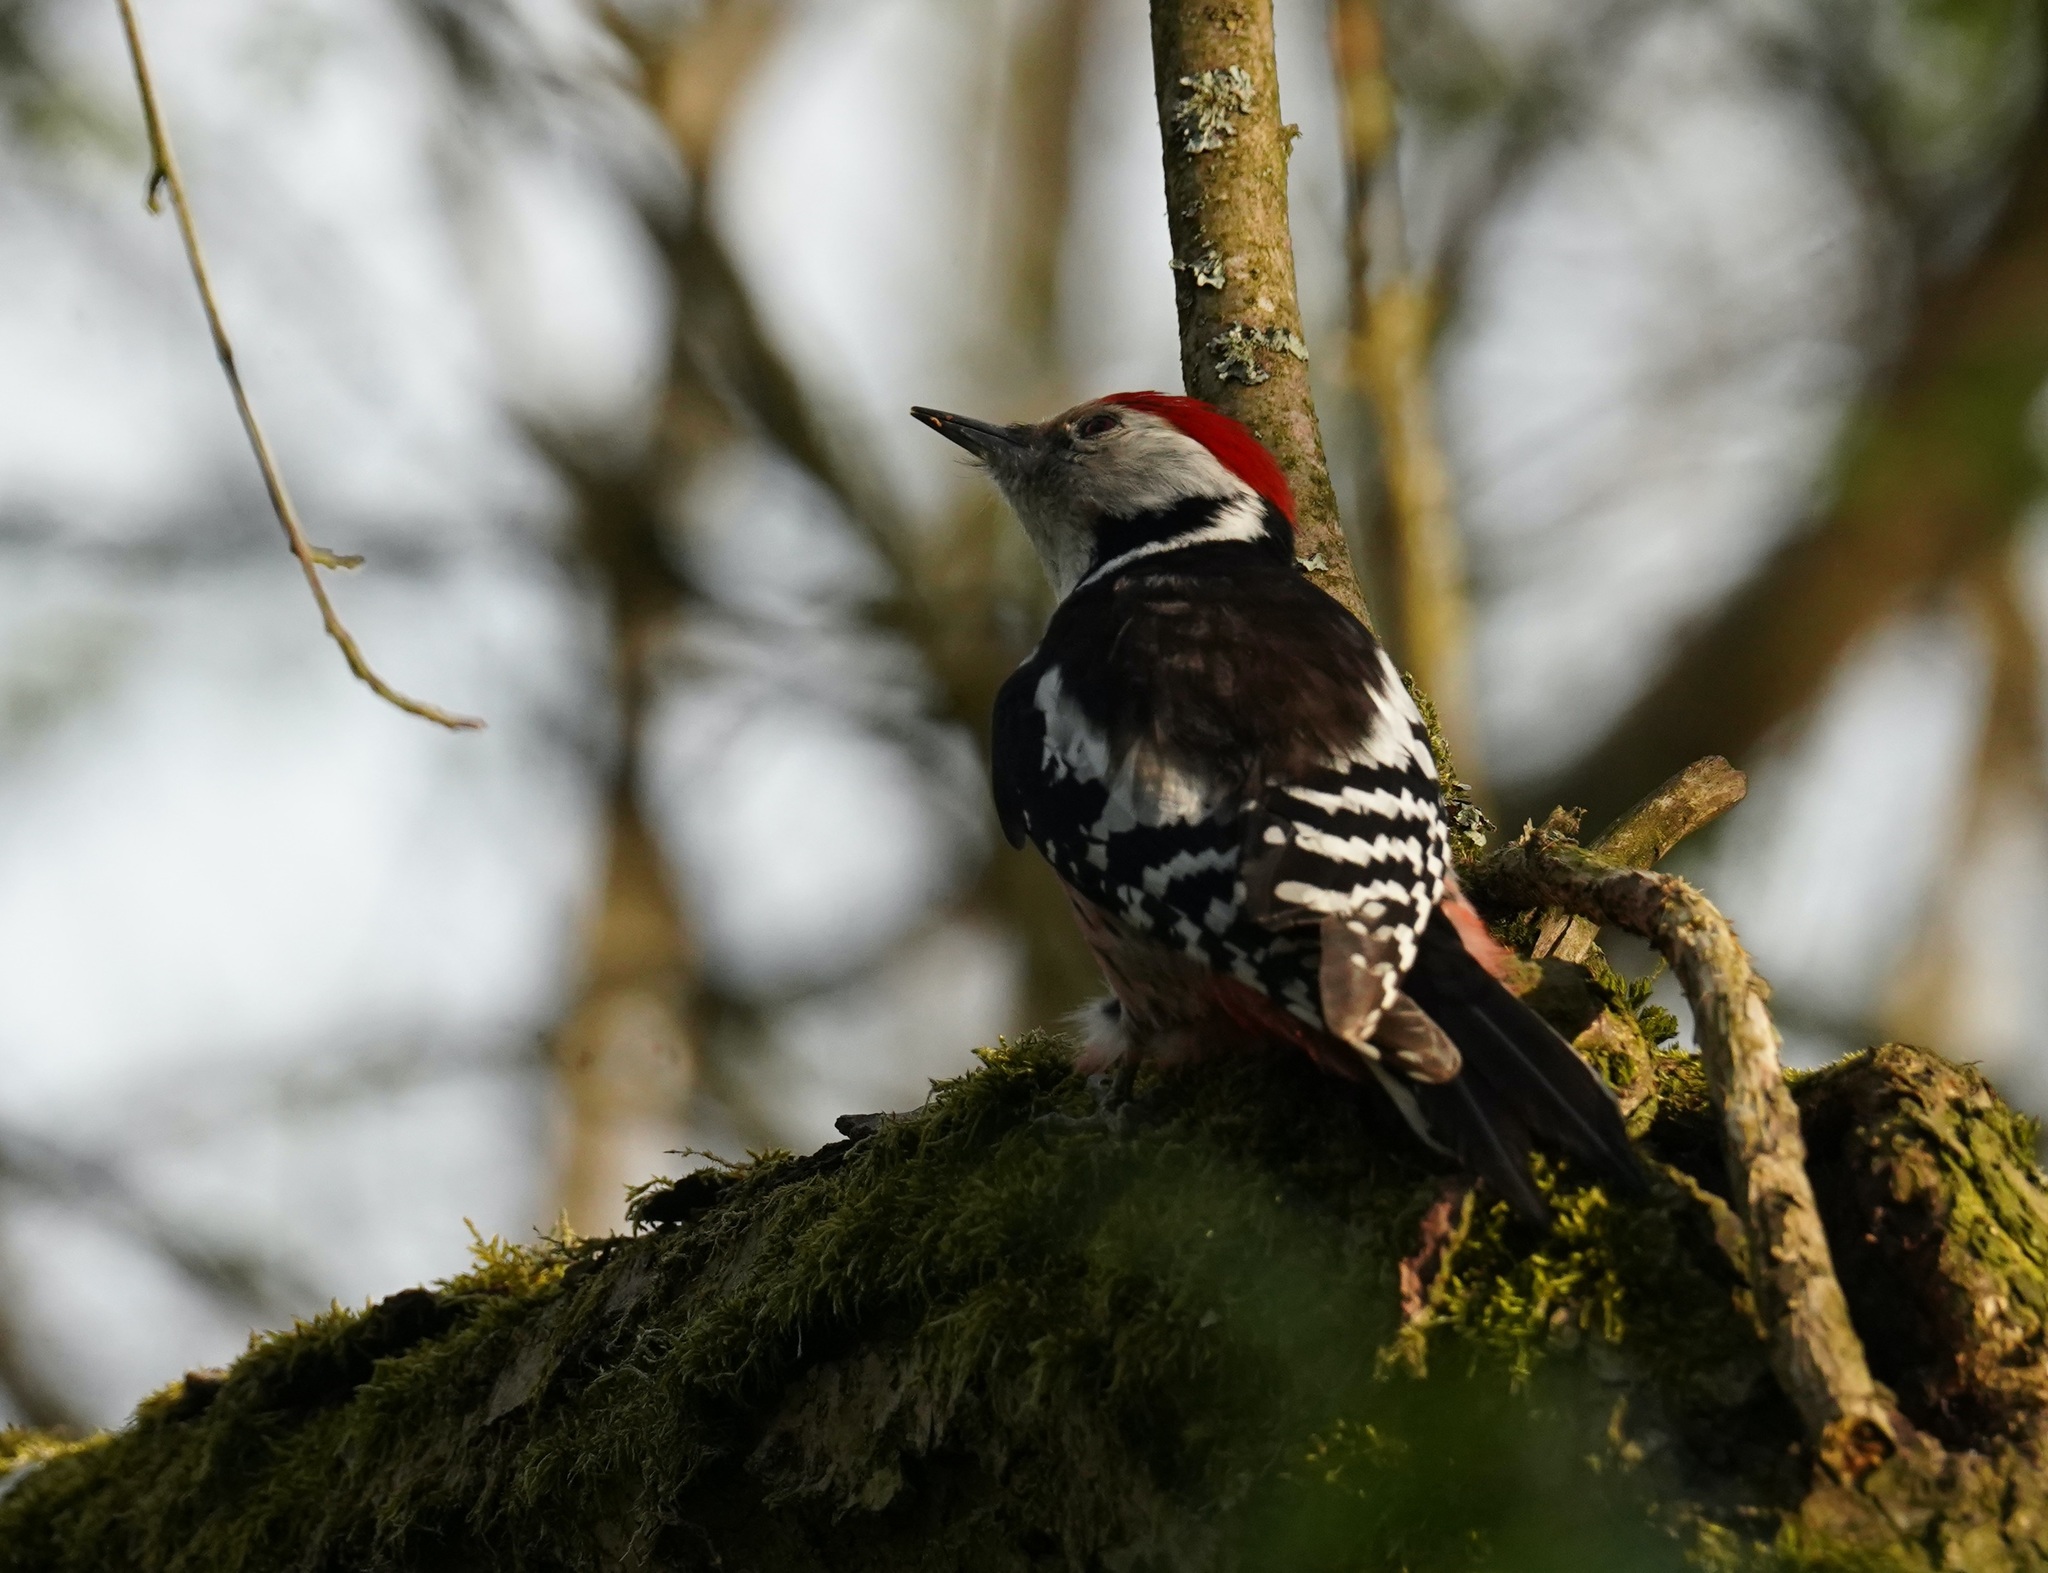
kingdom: Animalia
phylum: Chordata
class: Aves
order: Piciformes
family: Picidae
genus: Dendrocoptes
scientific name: Dendrocoptes medius
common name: Middle spotted woodpecker
